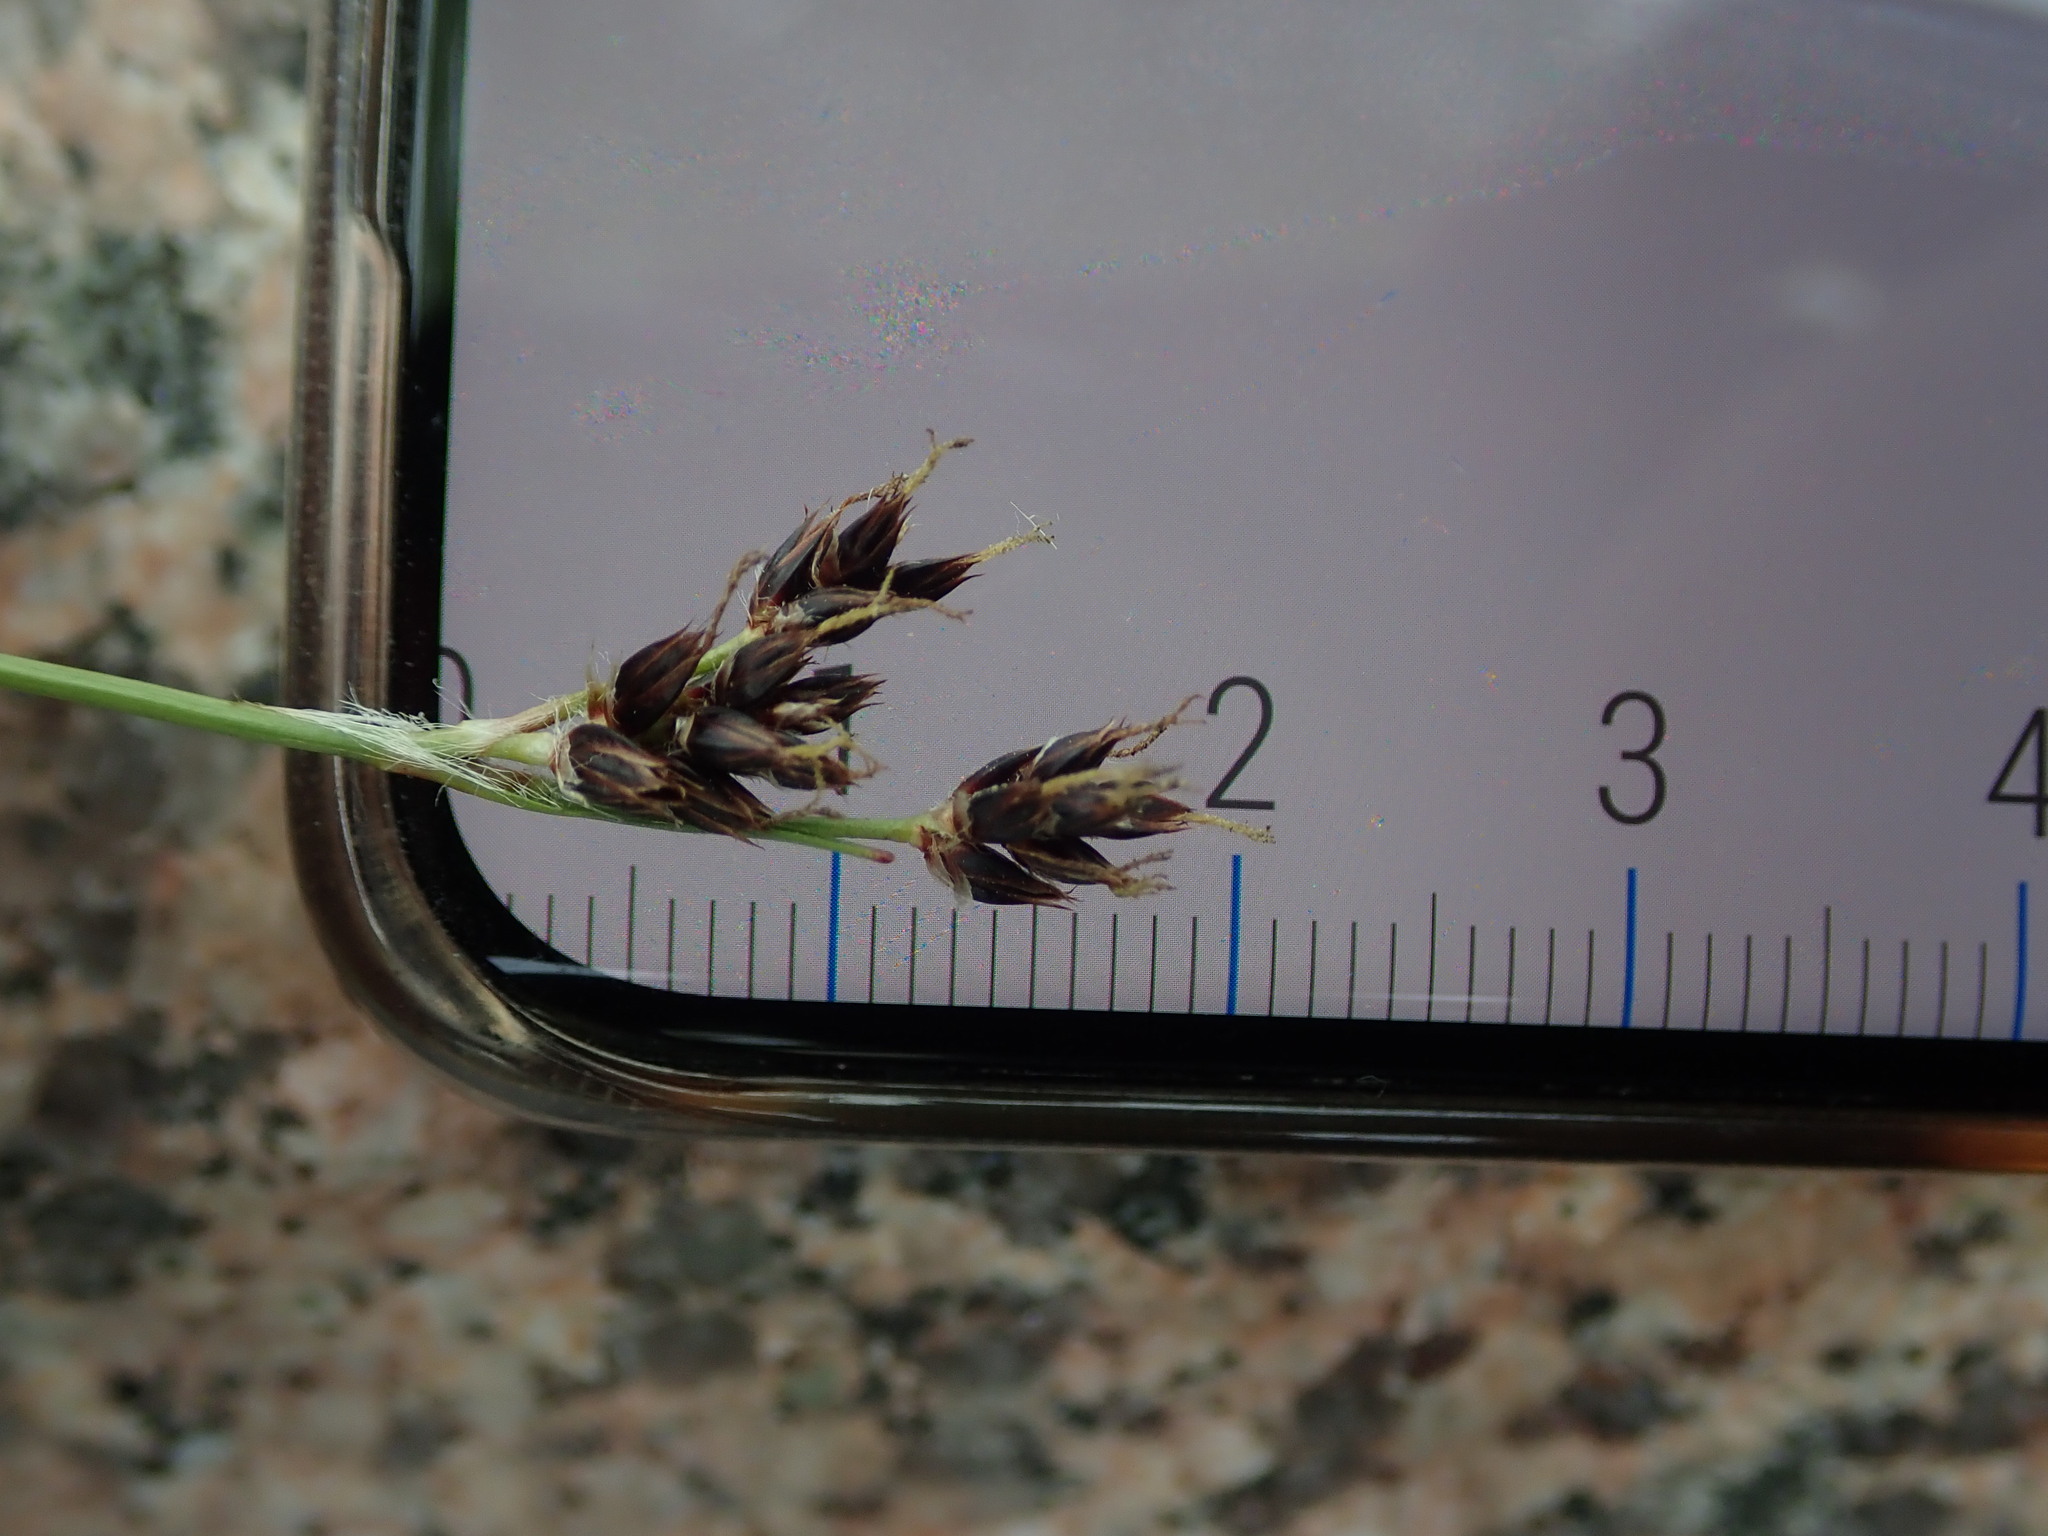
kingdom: Plantae
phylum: Tracheophyta
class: Liliopsida
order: Poales
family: Juncaceae
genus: Luzula
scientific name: Luzula campestris
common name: Field wood-rush
